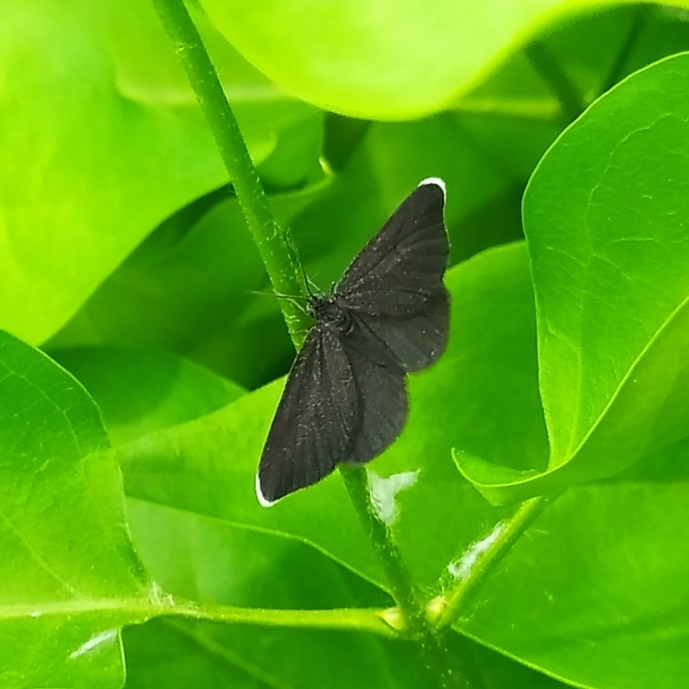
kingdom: Animalia
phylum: Arthropoda
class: Insecta
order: Lepidoptera
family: Geometridae
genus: Odezia
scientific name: Odezia atrata
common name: Chimney sweeper
